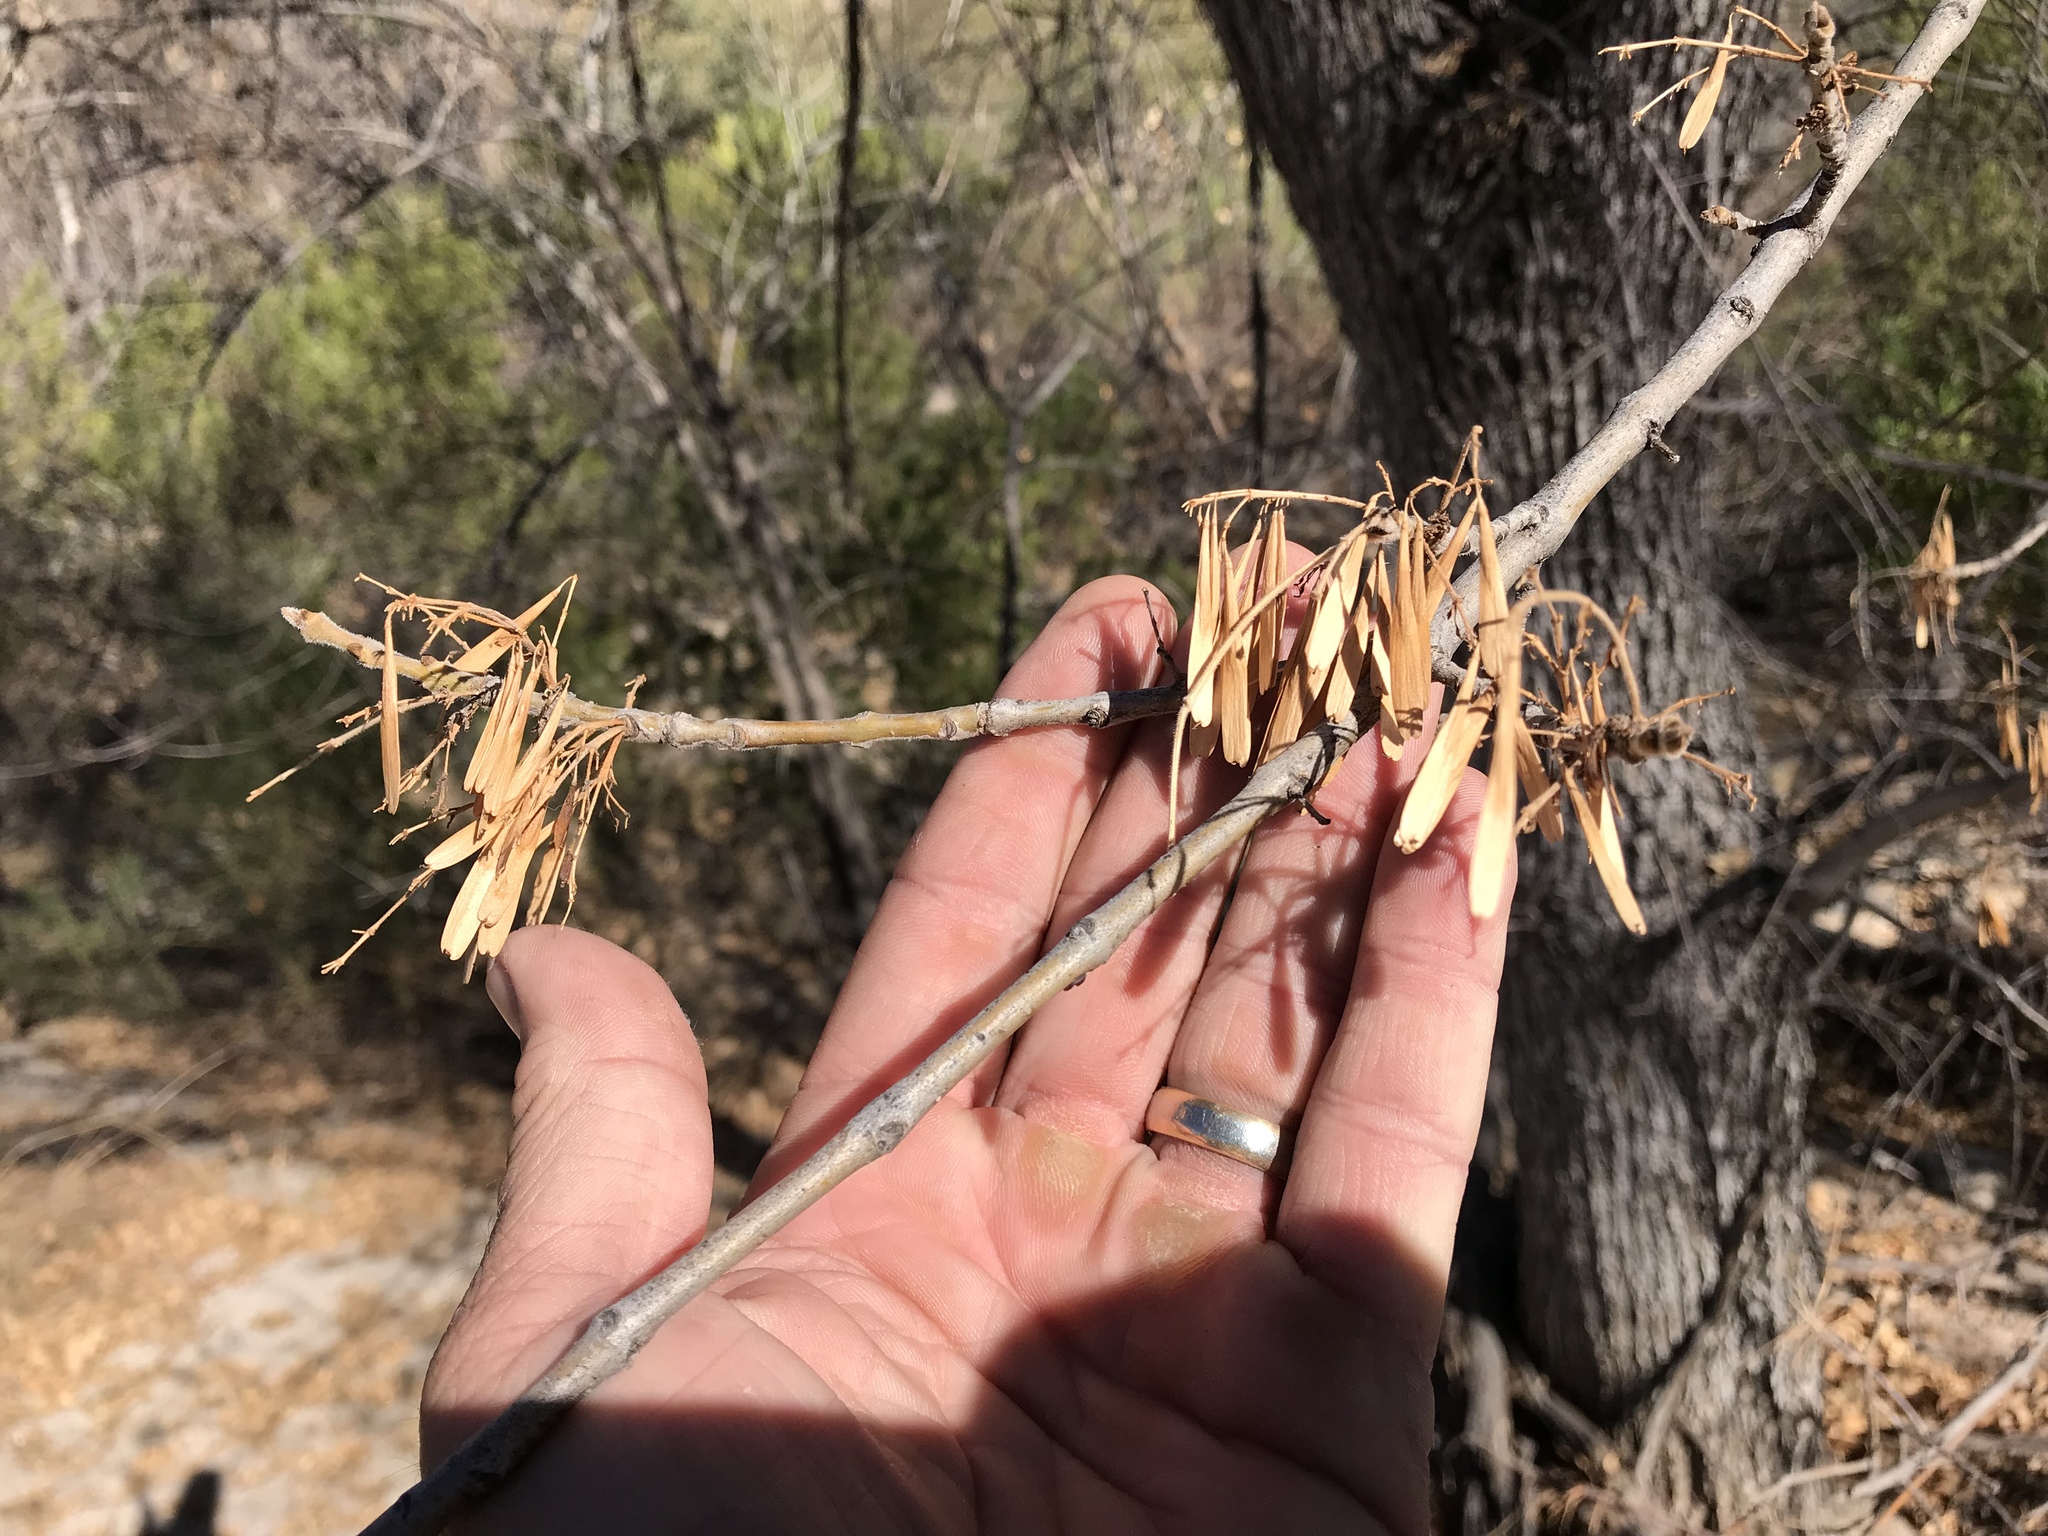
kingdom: Plantae
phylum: Tracheophyta
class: Magnoliopsida
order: Lamiales
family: Oleaceae
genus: Fraxinus
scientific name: Fraxinus velutina
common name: Arizon ash
